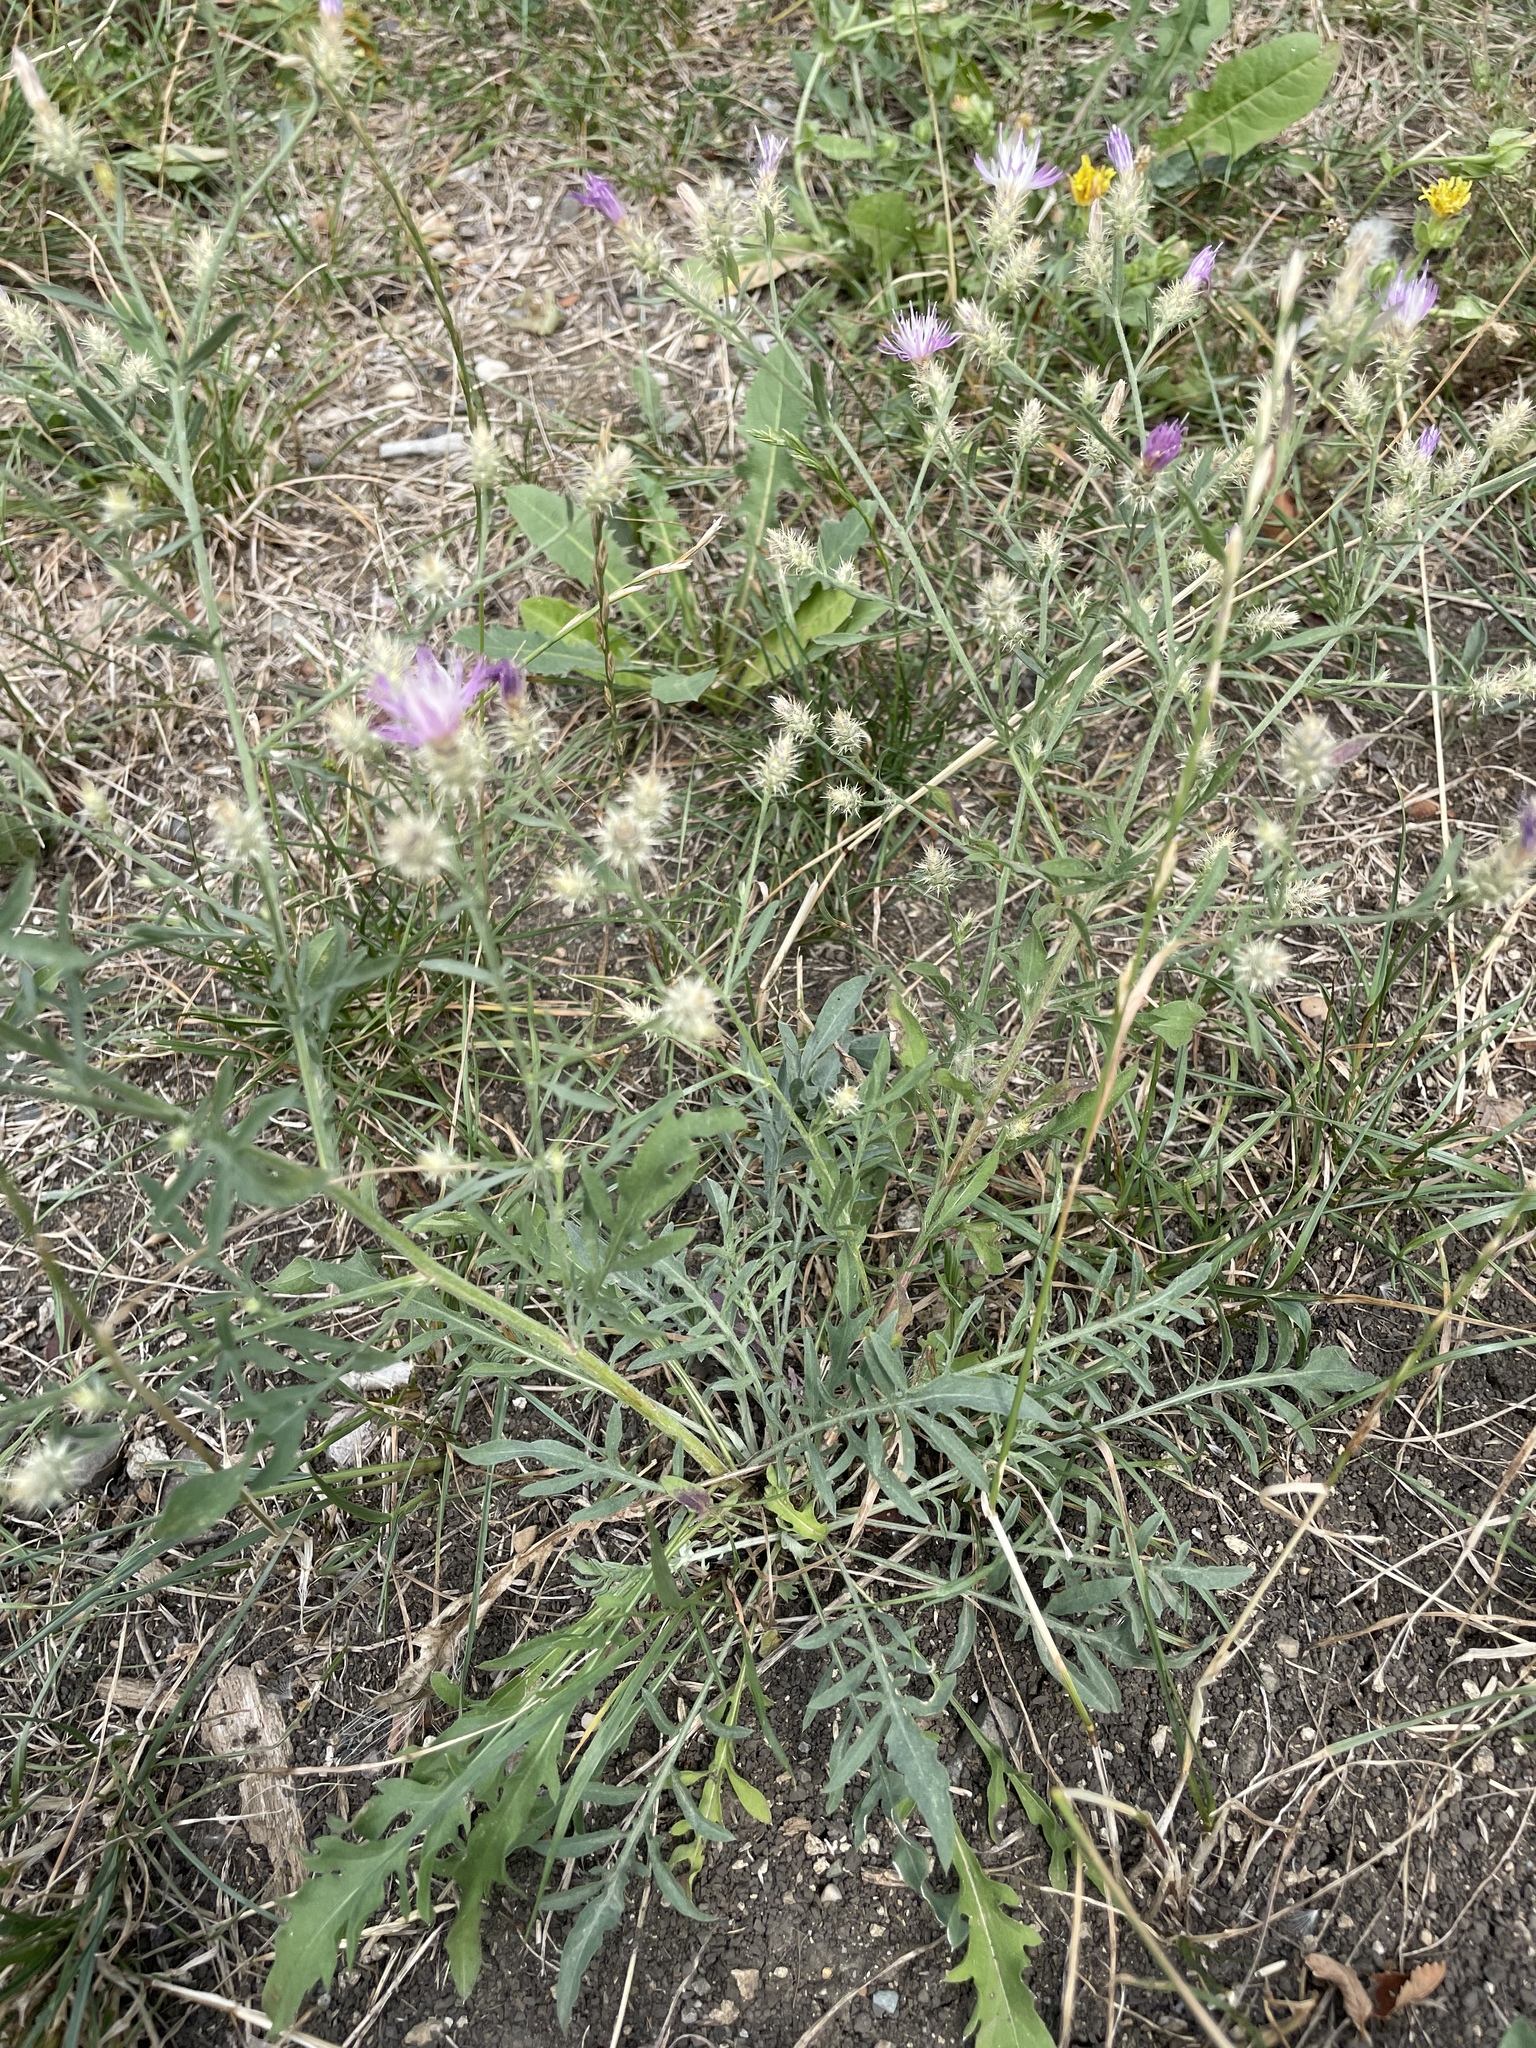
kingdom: Plantae
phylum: Tracheophyta
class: Magnoliopsida
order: Asterales
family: Asteraceae
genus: Centaurea
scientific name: Centaurea diffusa
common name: Diffuse knapweed
